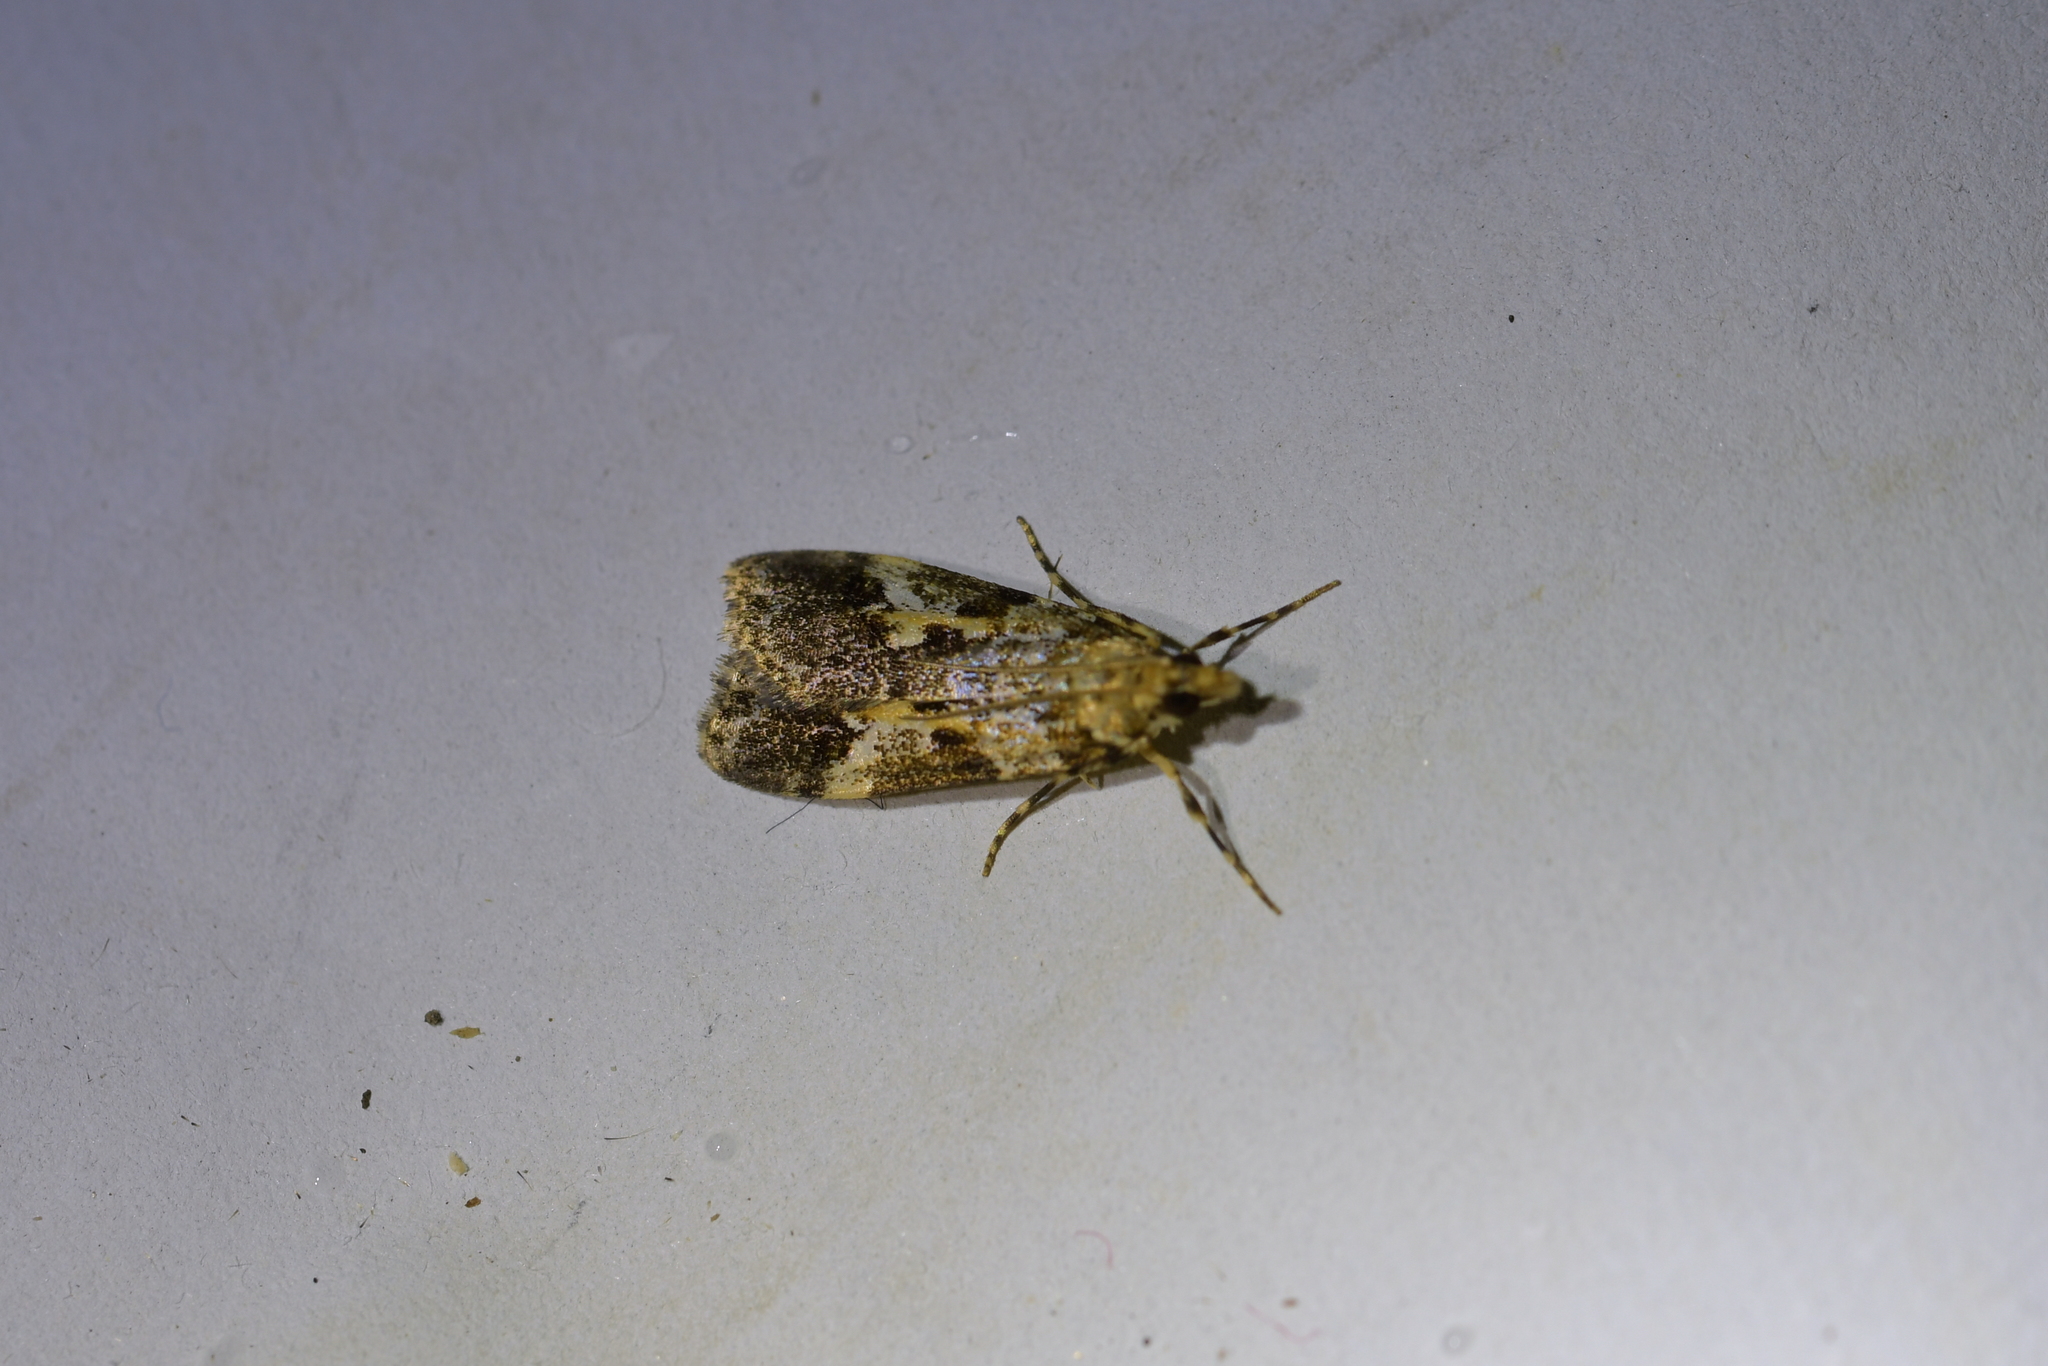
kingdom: Animalia
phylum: Arthropoda
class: Insecta
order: Lepidoptera
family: Crambidae
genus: Eudonia
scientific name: Eudonia characta
